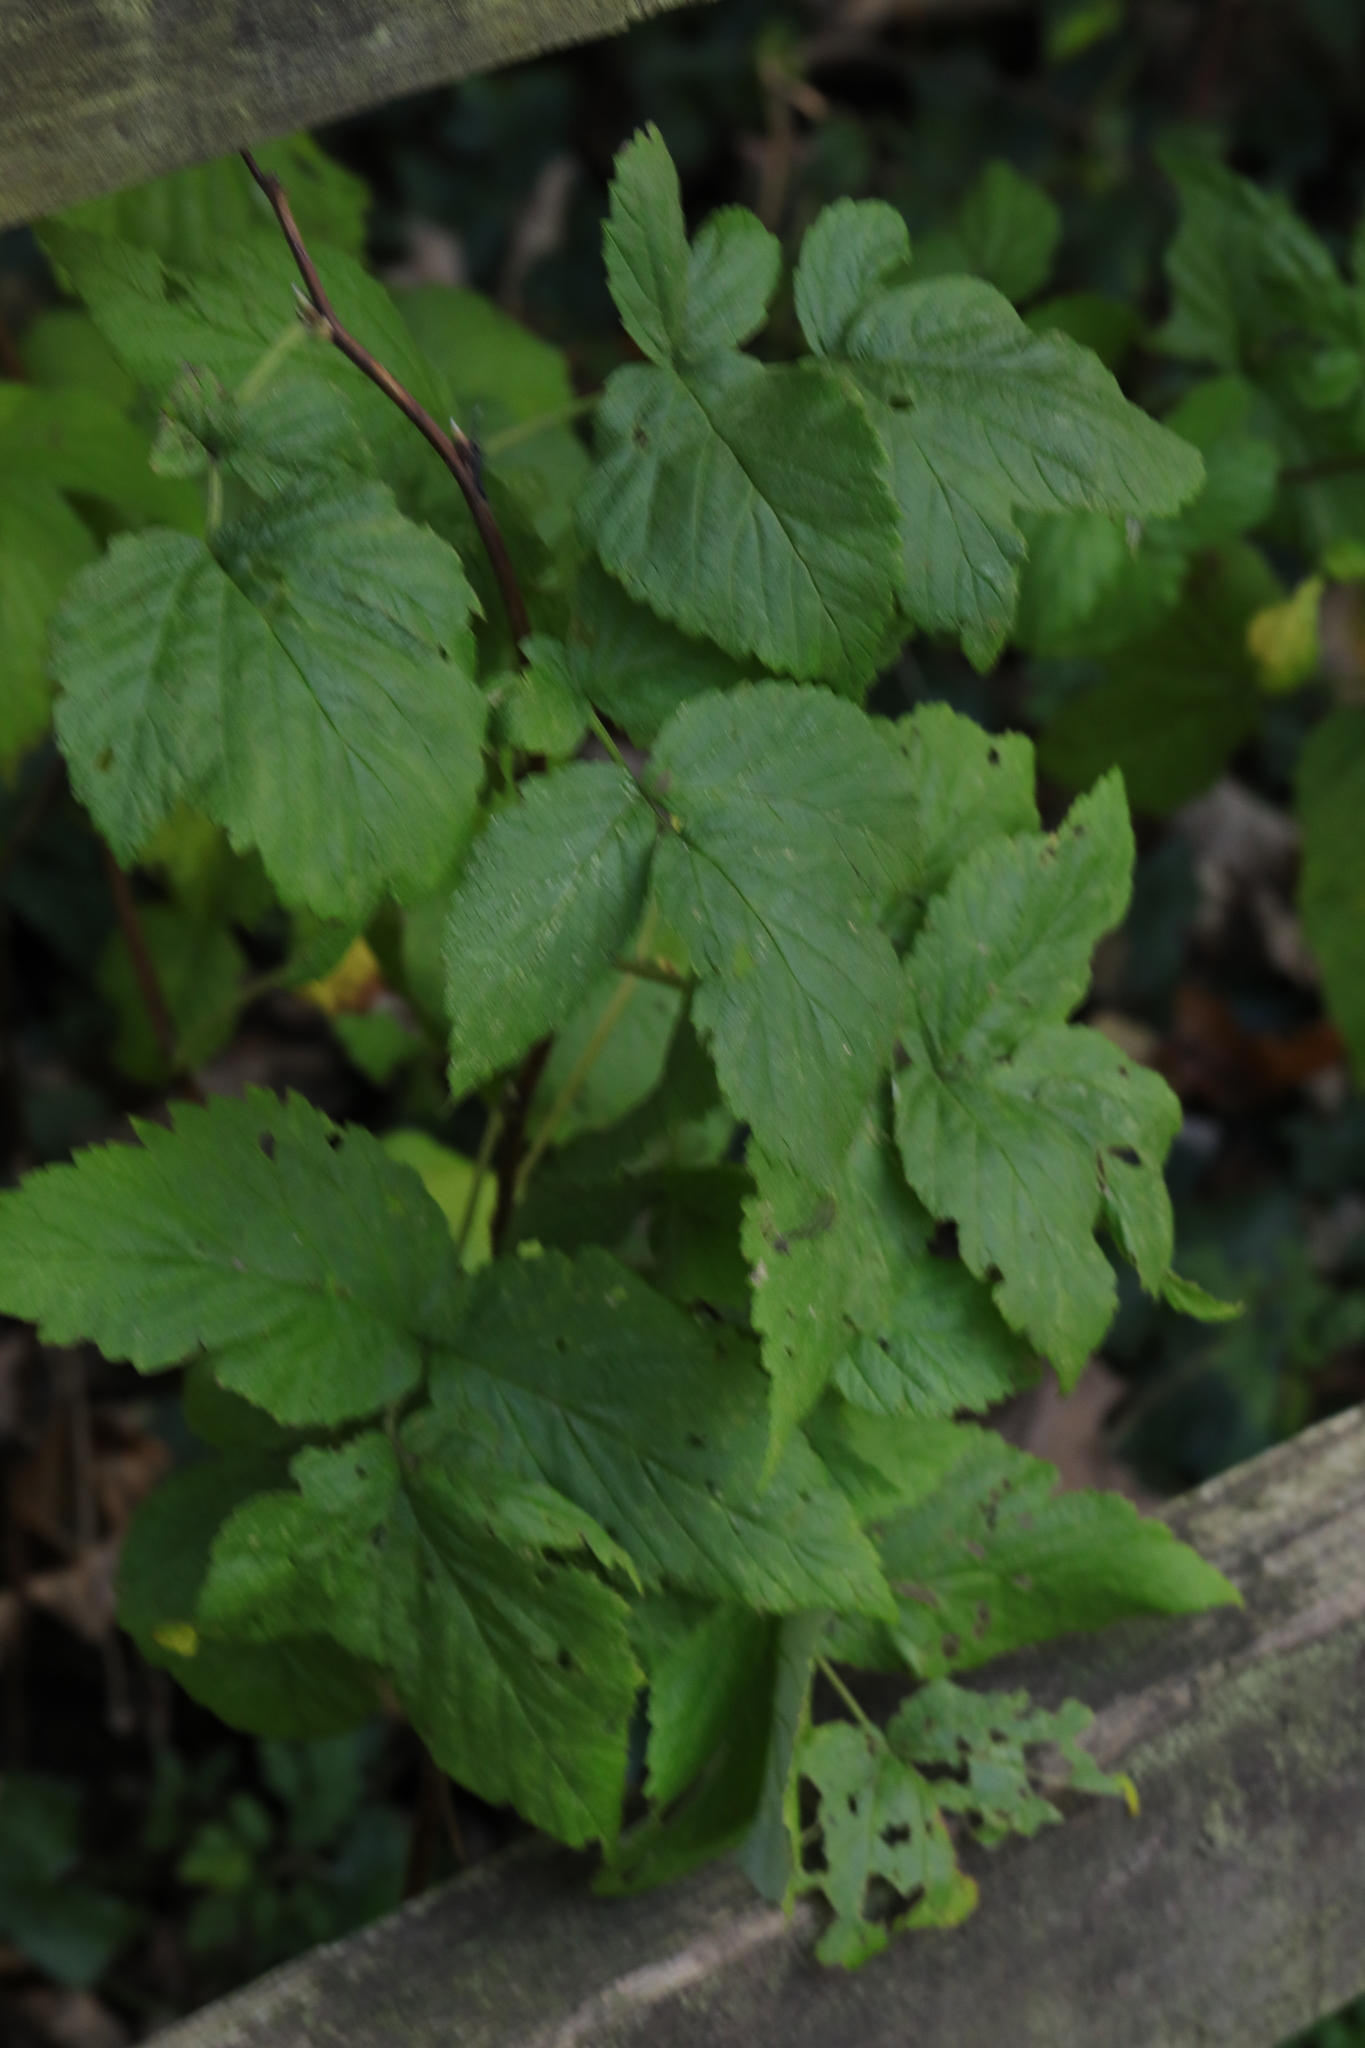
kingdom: Plantae
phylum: Tracheophyta
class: Magnoliopsida
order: Rosales
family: Rosaceae
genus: Rubus
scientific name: Rubus idaeus
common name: Raspberry
